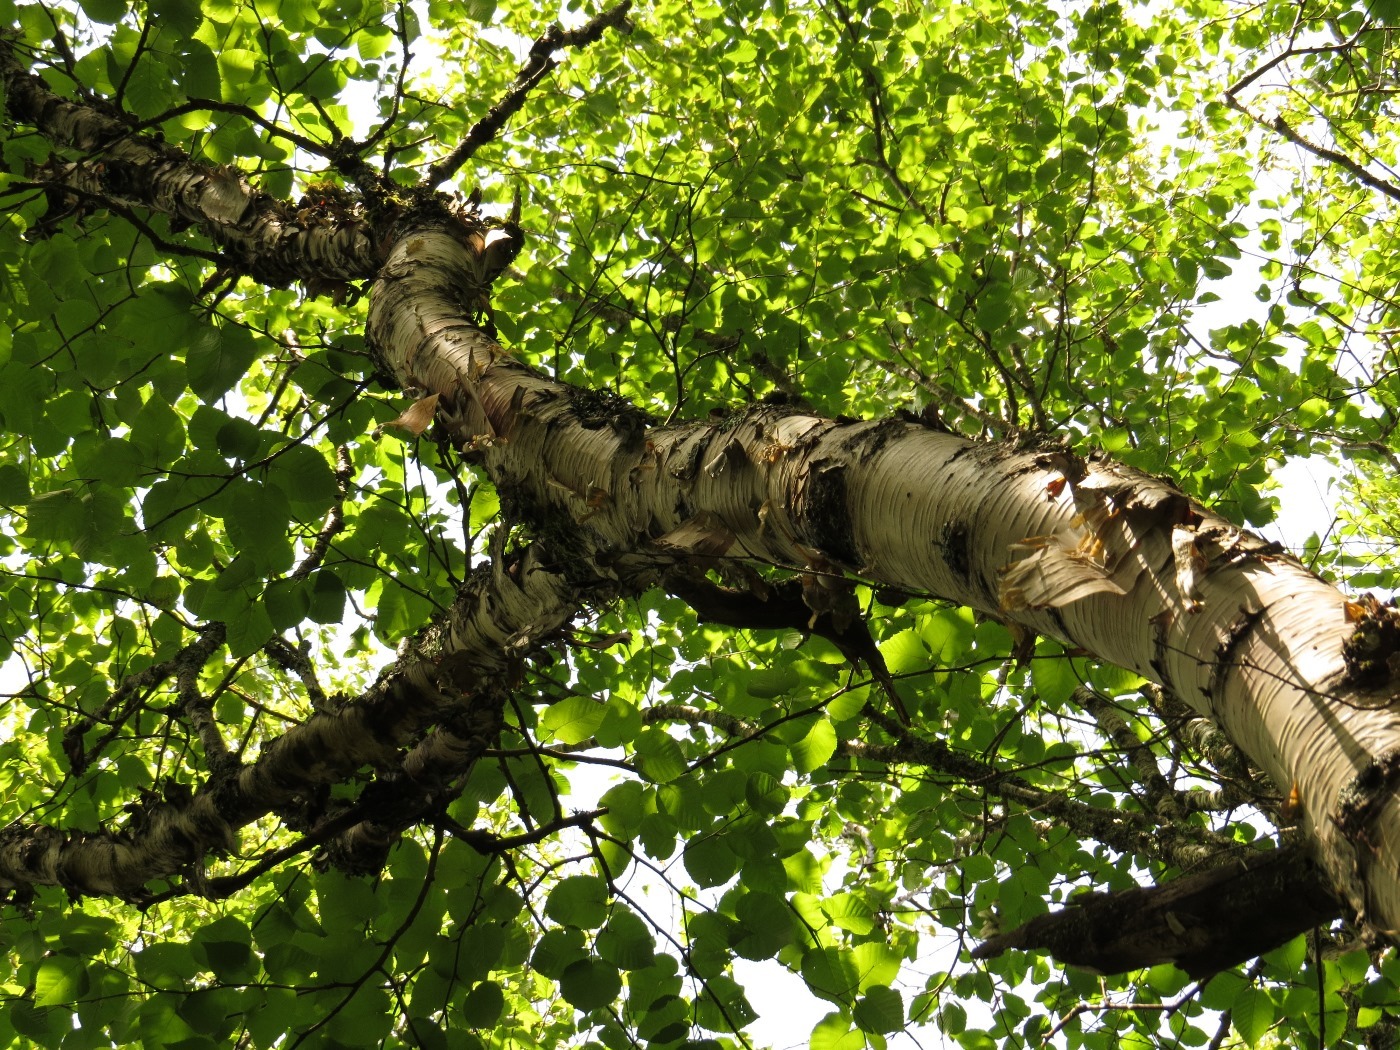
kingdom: Plantae
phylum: Tracheophyta
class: Magnoliopsida
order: Fagales
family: Betulaceae
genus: Betula
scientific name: Betula cordifolia
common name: Mountain white birch
